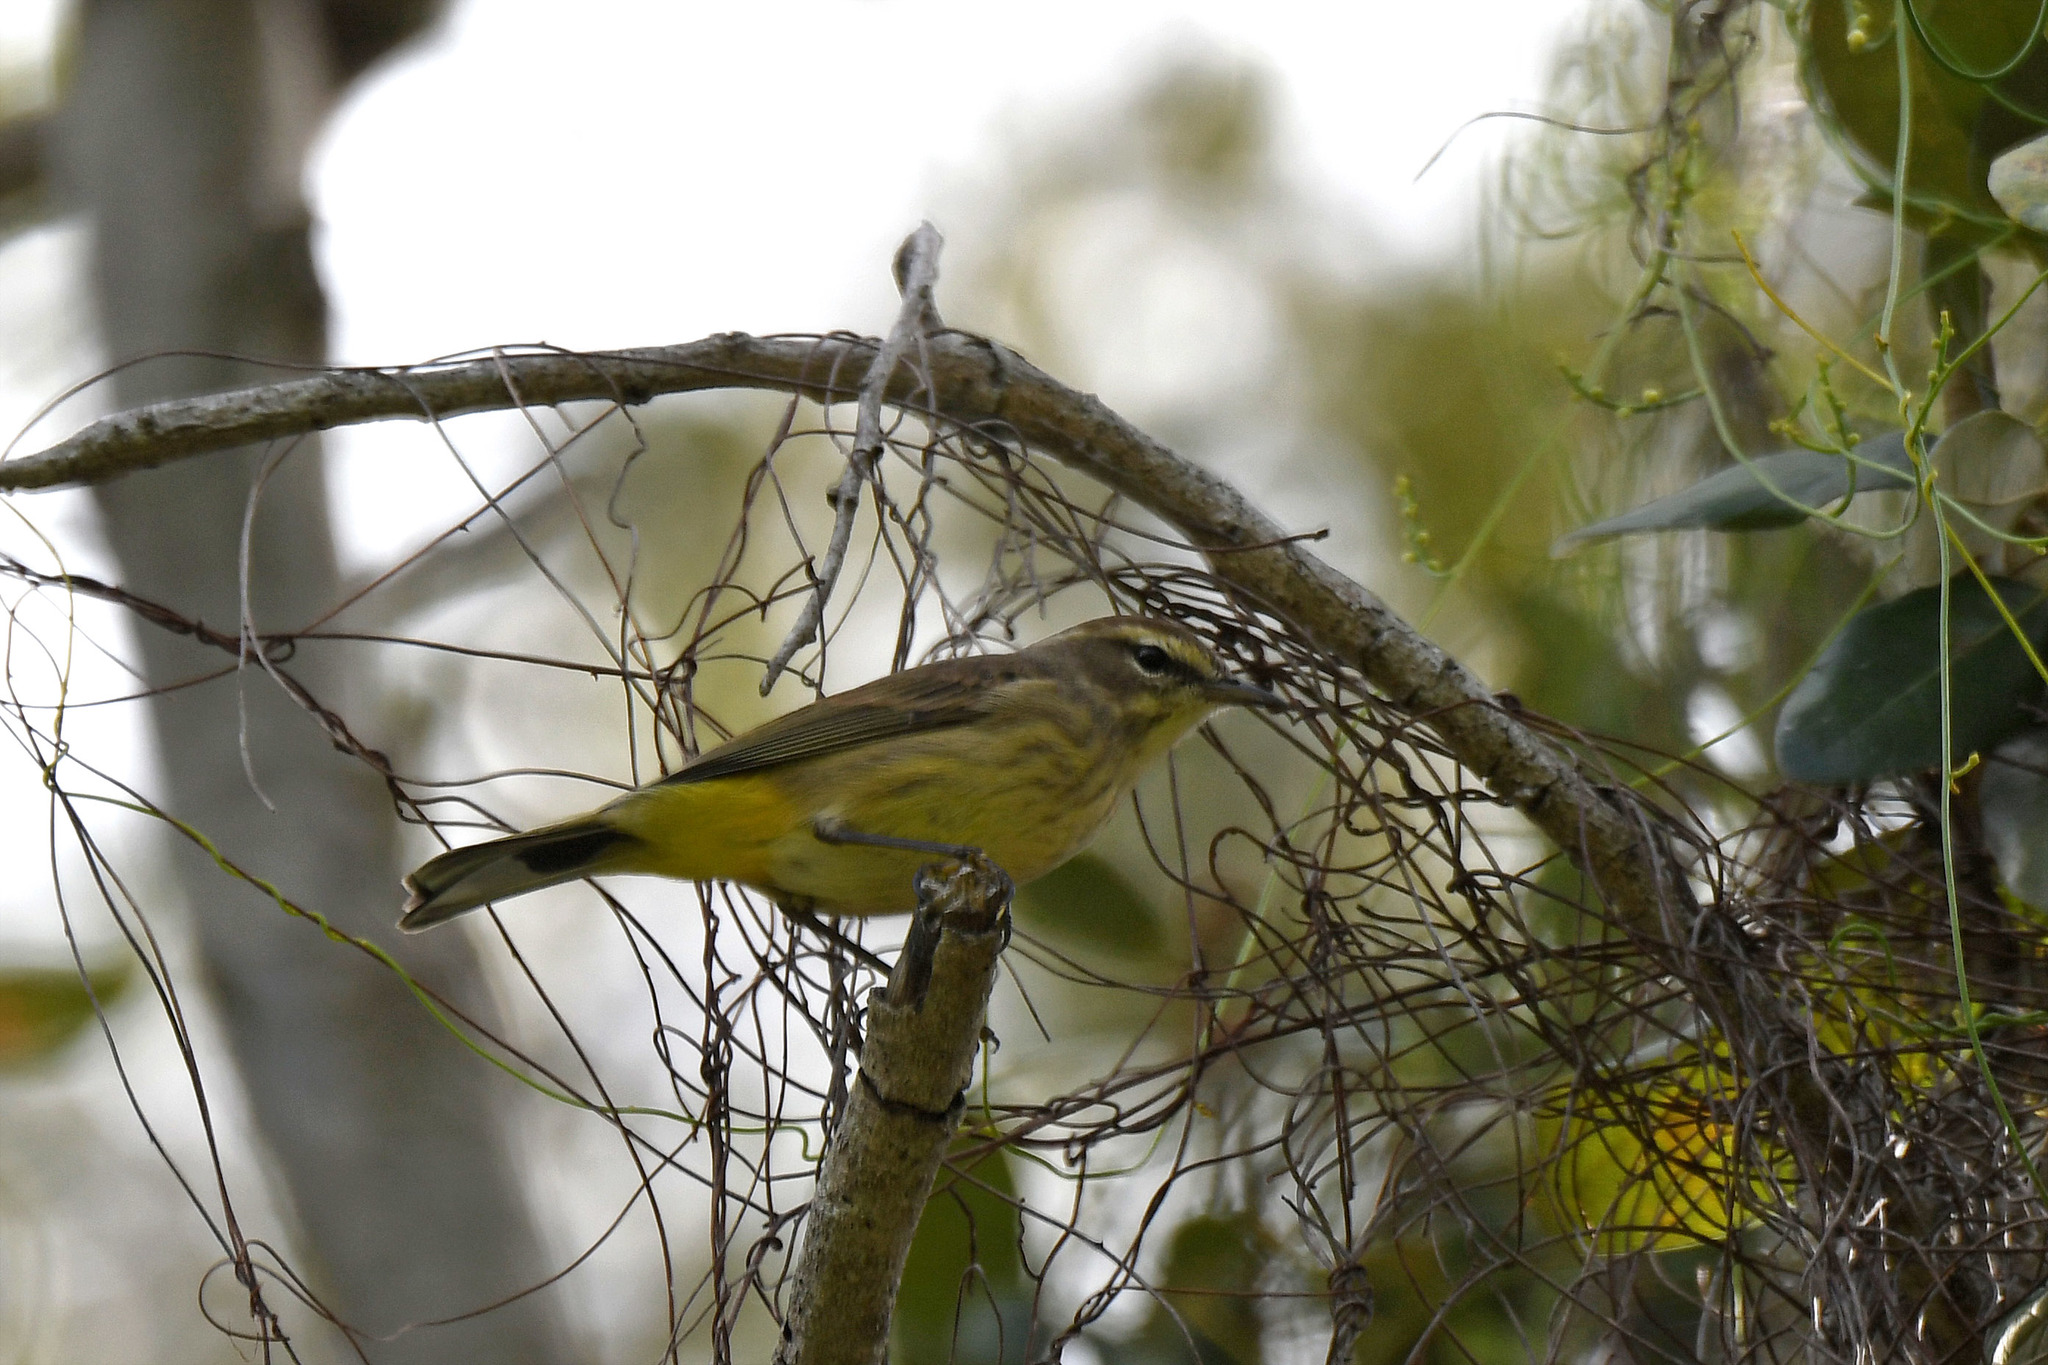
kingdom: Animalia
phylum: Chordata
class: Aves
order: Passeriformes
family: Parulidae
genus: Setophaga
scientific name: Setophaga palmarum
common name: Palm warbler
